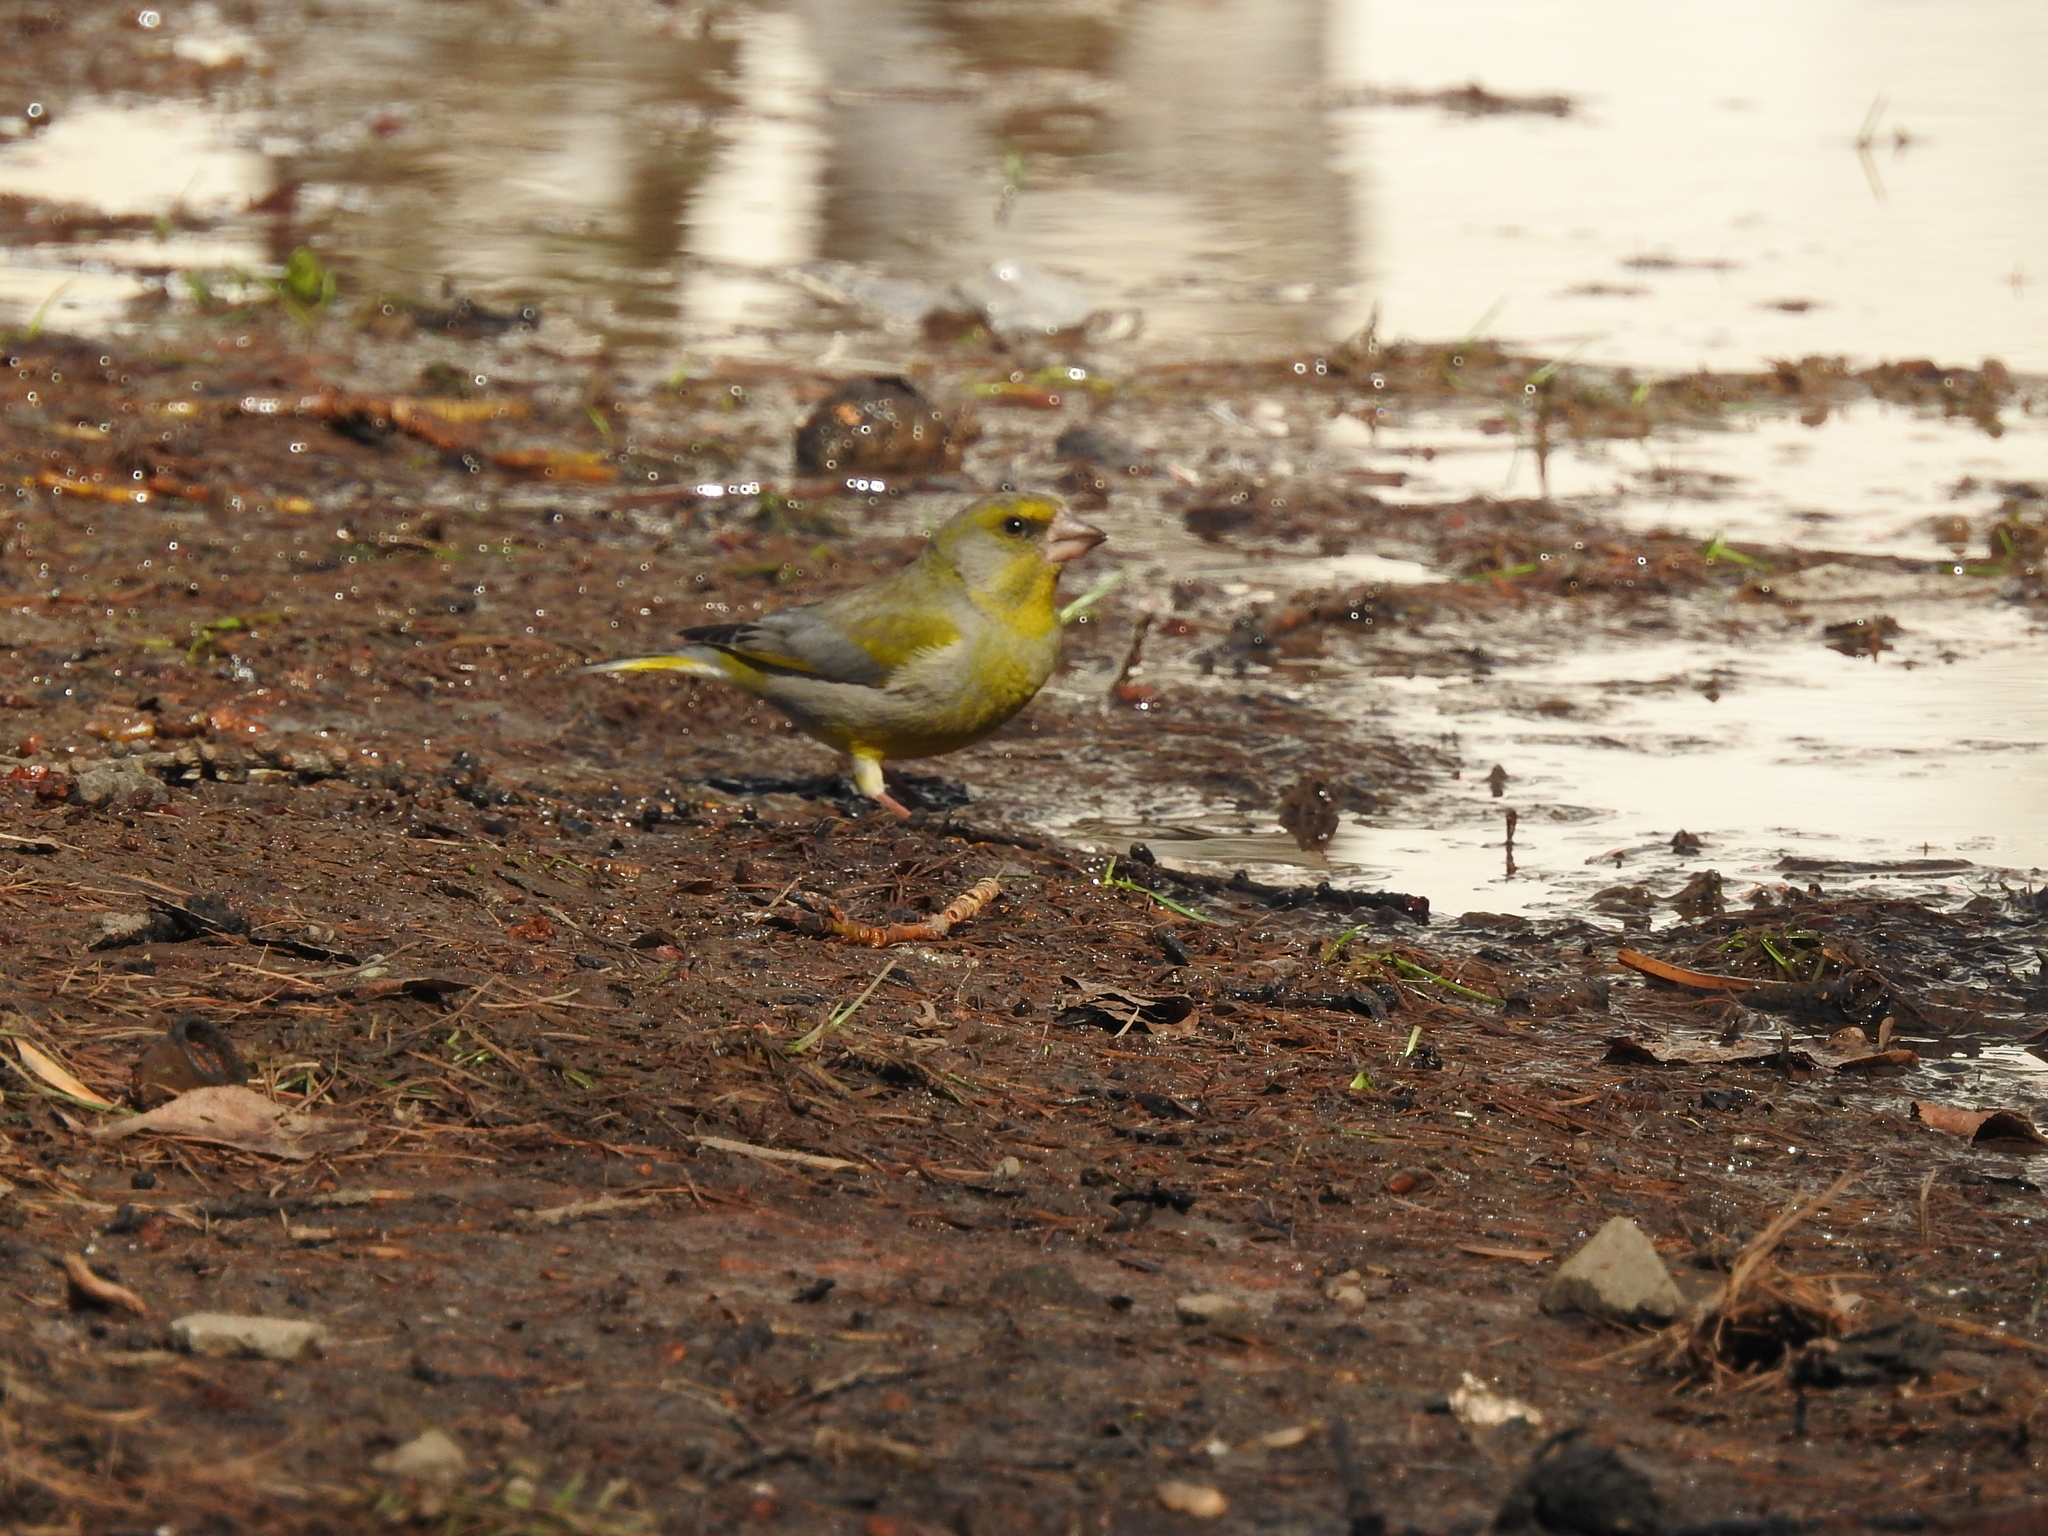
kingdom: Plantae
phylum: Tracheophyta
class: Liliopsida
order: Poales
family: Poaceae
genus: Chloris
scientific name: Chloris chloris
